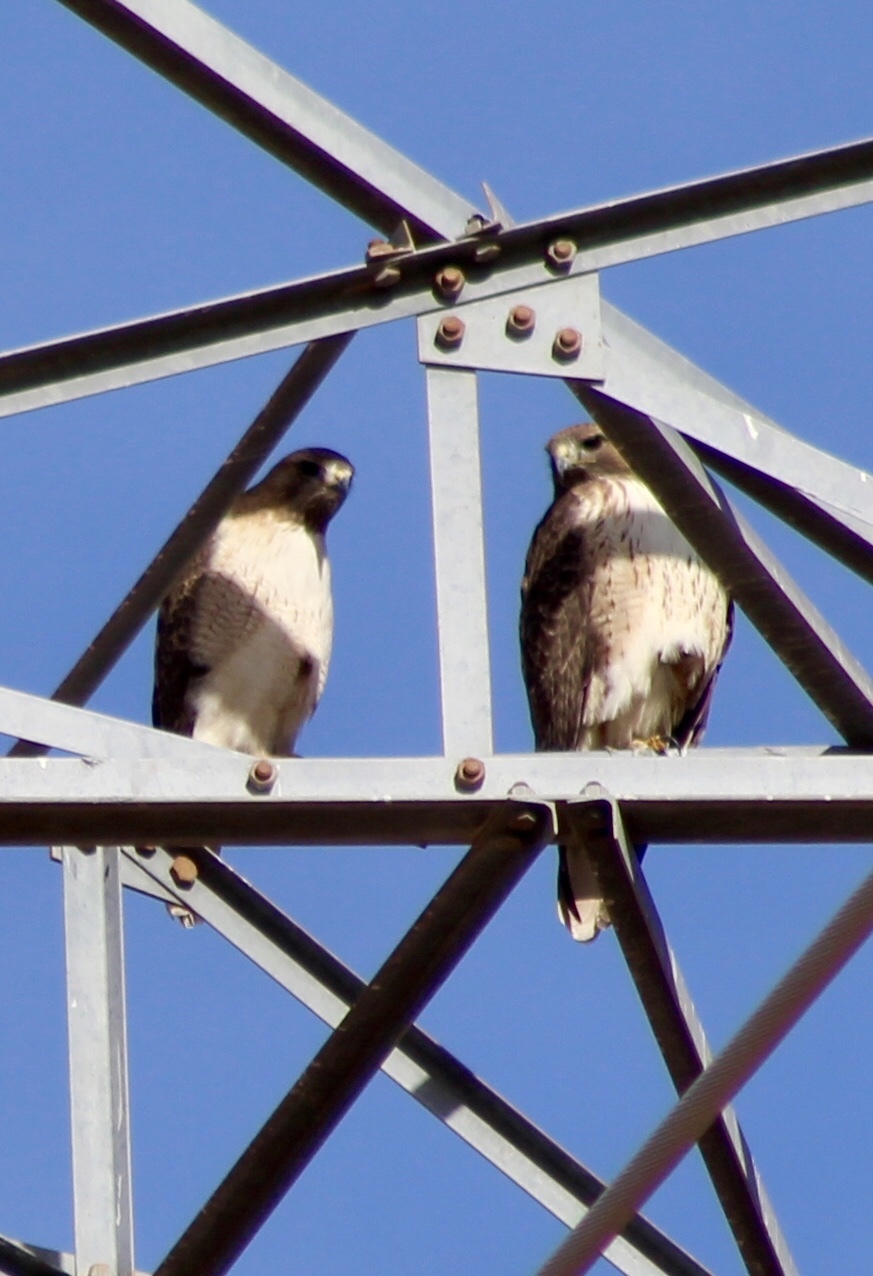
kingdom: Animalia
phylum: Chordata
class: Aves
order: Accipitriformes
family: Accipitridae
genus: Buteo
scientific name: Buteo jamaicensis
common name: Red-tailed hawk
